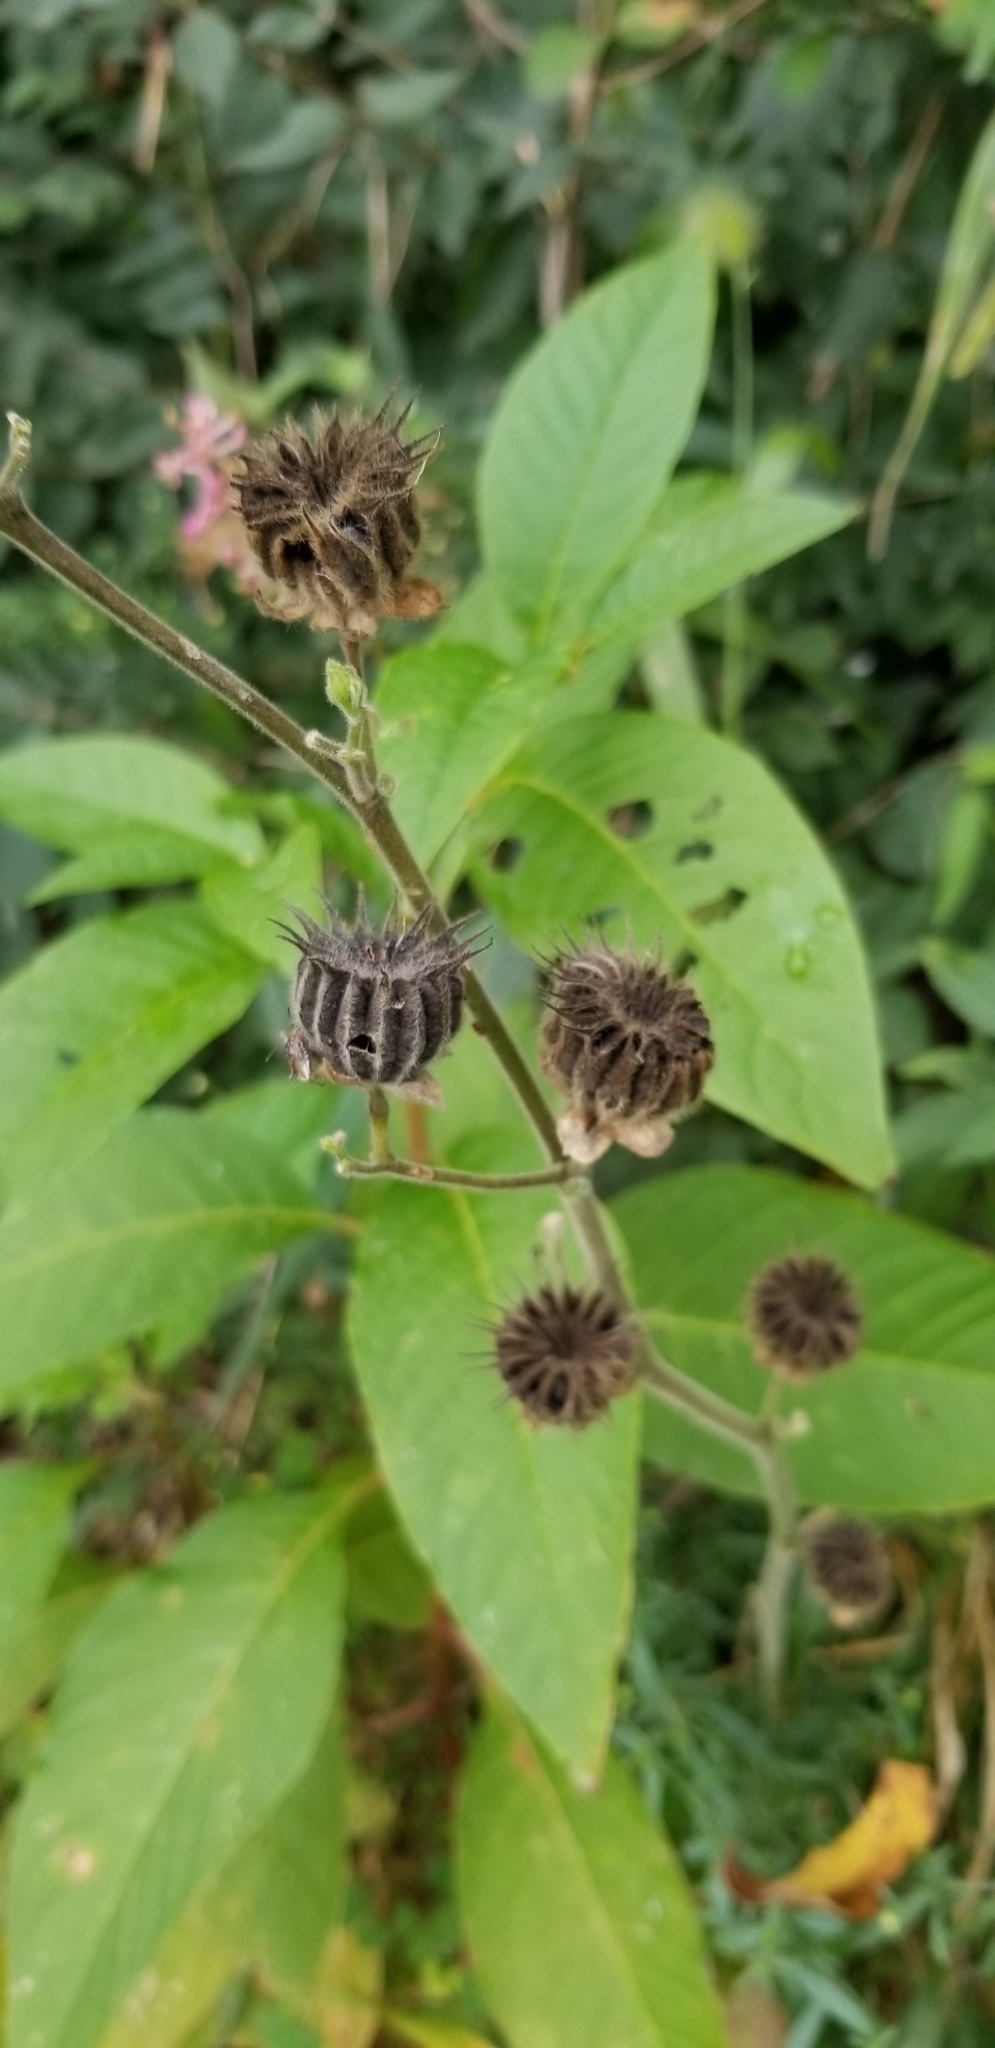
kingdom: Plantae
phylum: Tracheophyta
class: Magnoliopsida
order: Malvales
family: Malvaceae
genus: Abutilon
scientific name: Abutilon theophrasti
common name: Velvetleaf
